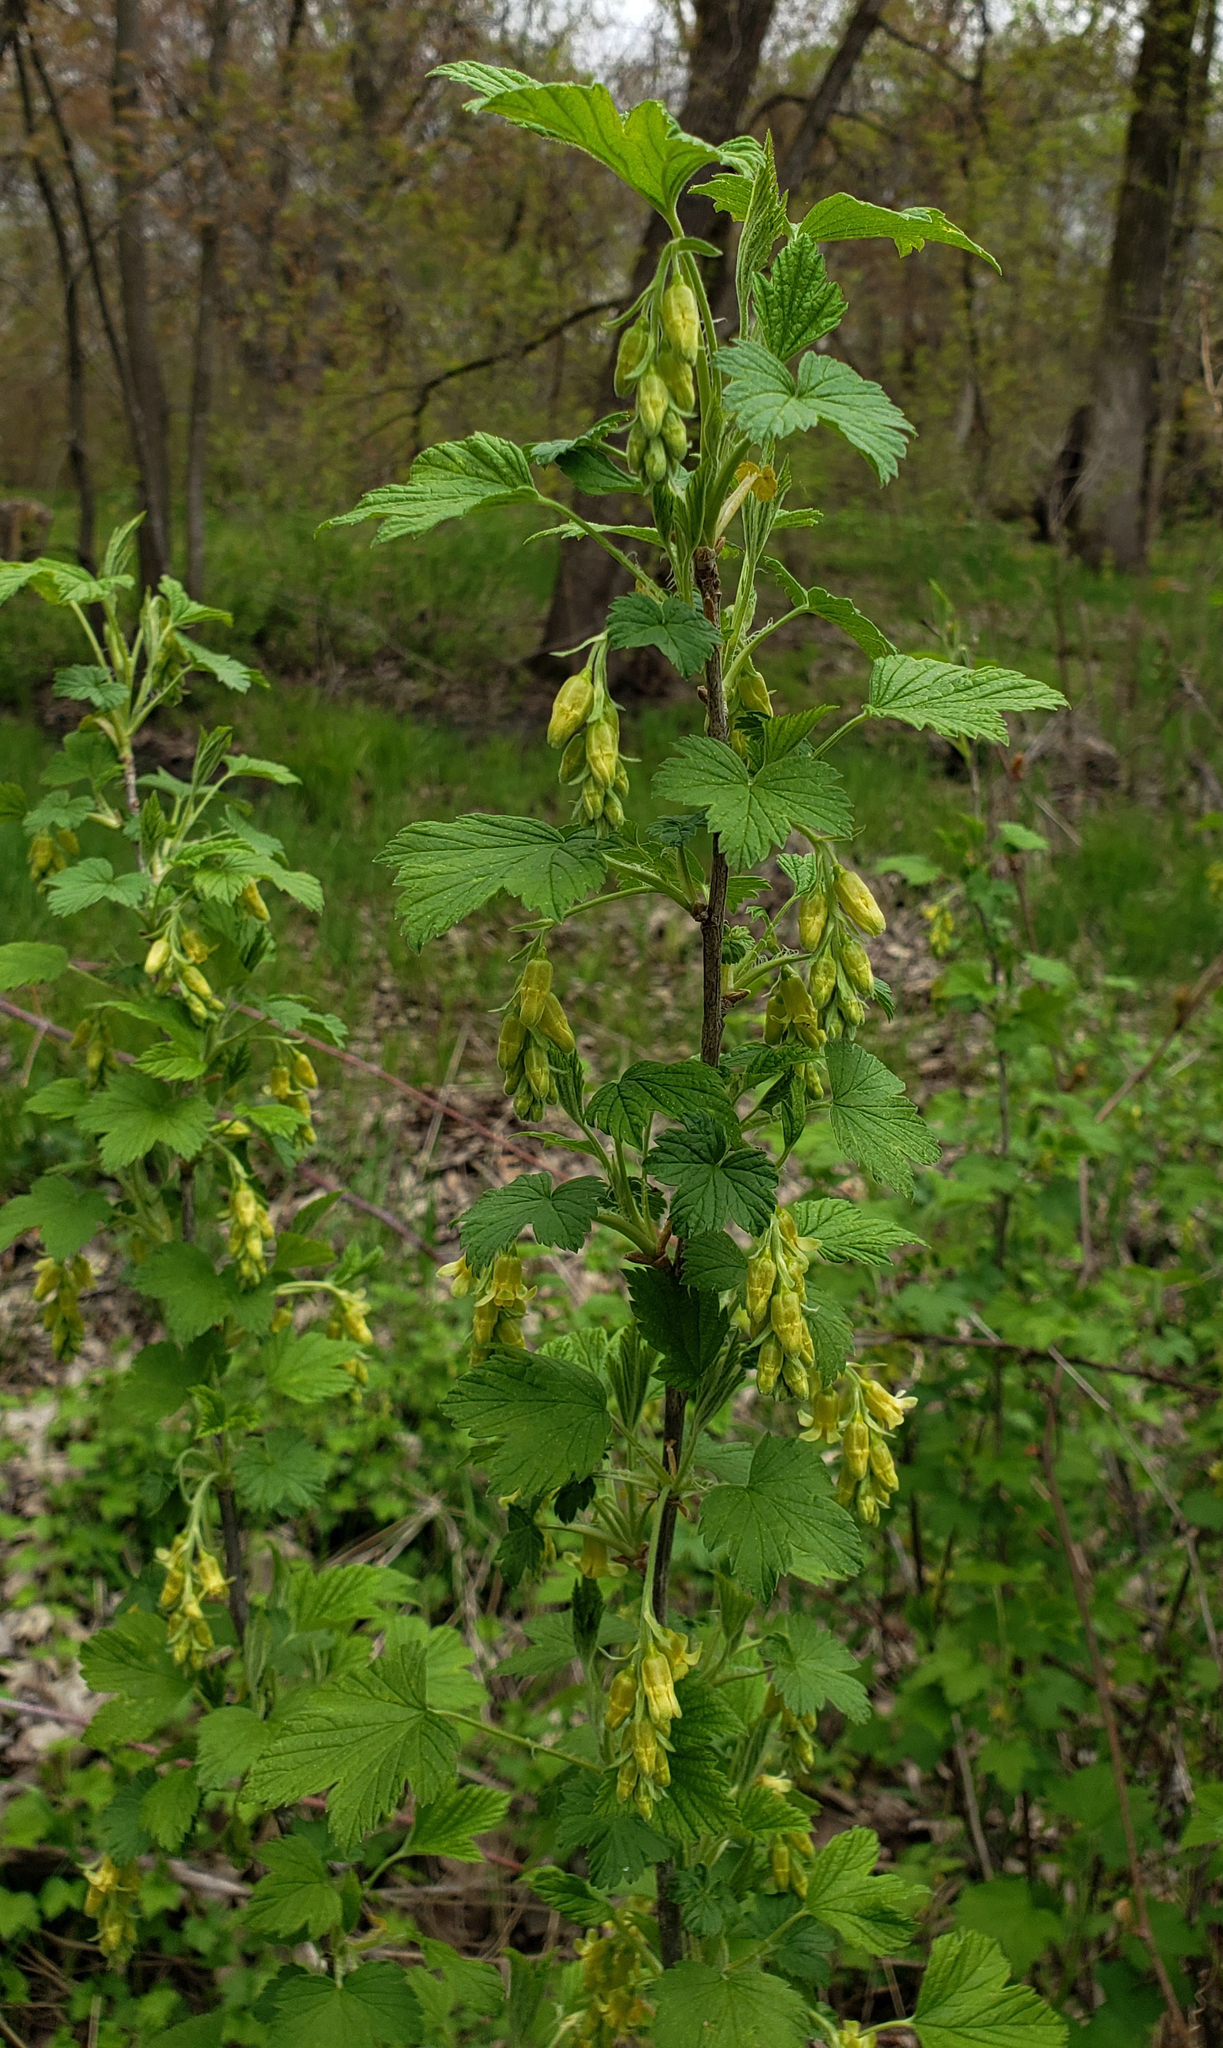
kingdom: Plantae
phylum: Tracheophyta
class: Magnoliopsida
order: Saxifragales
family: Grossulariaceae
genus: Ribes
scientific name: Ribes americanum
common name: American black currant
